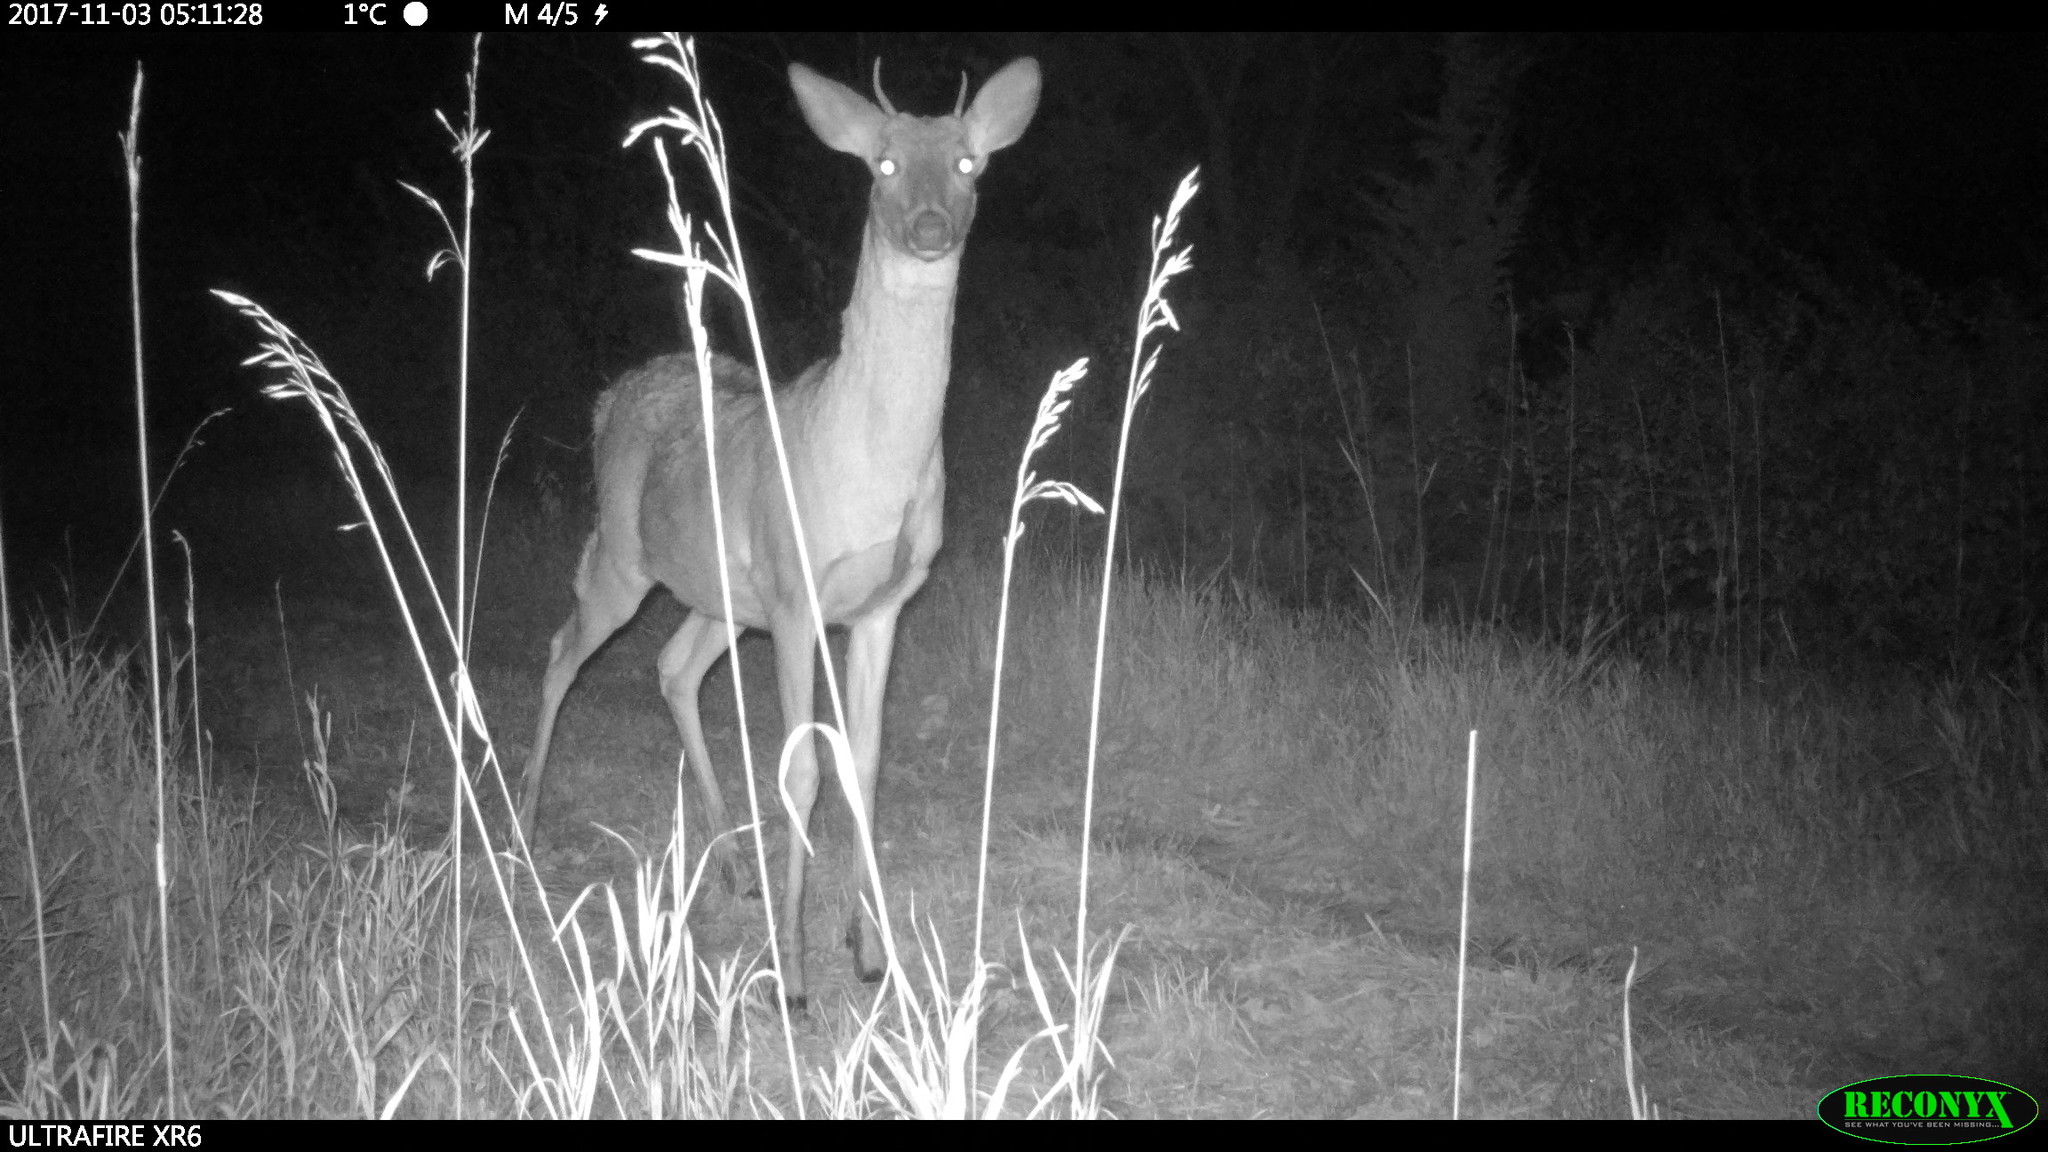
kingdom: Animalia
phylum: Chordata
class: Mammalia
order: Artiodactyla
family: Cervidae
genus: Odocoileus
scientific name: Odocoileus virginianus
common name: White-tailed deer
